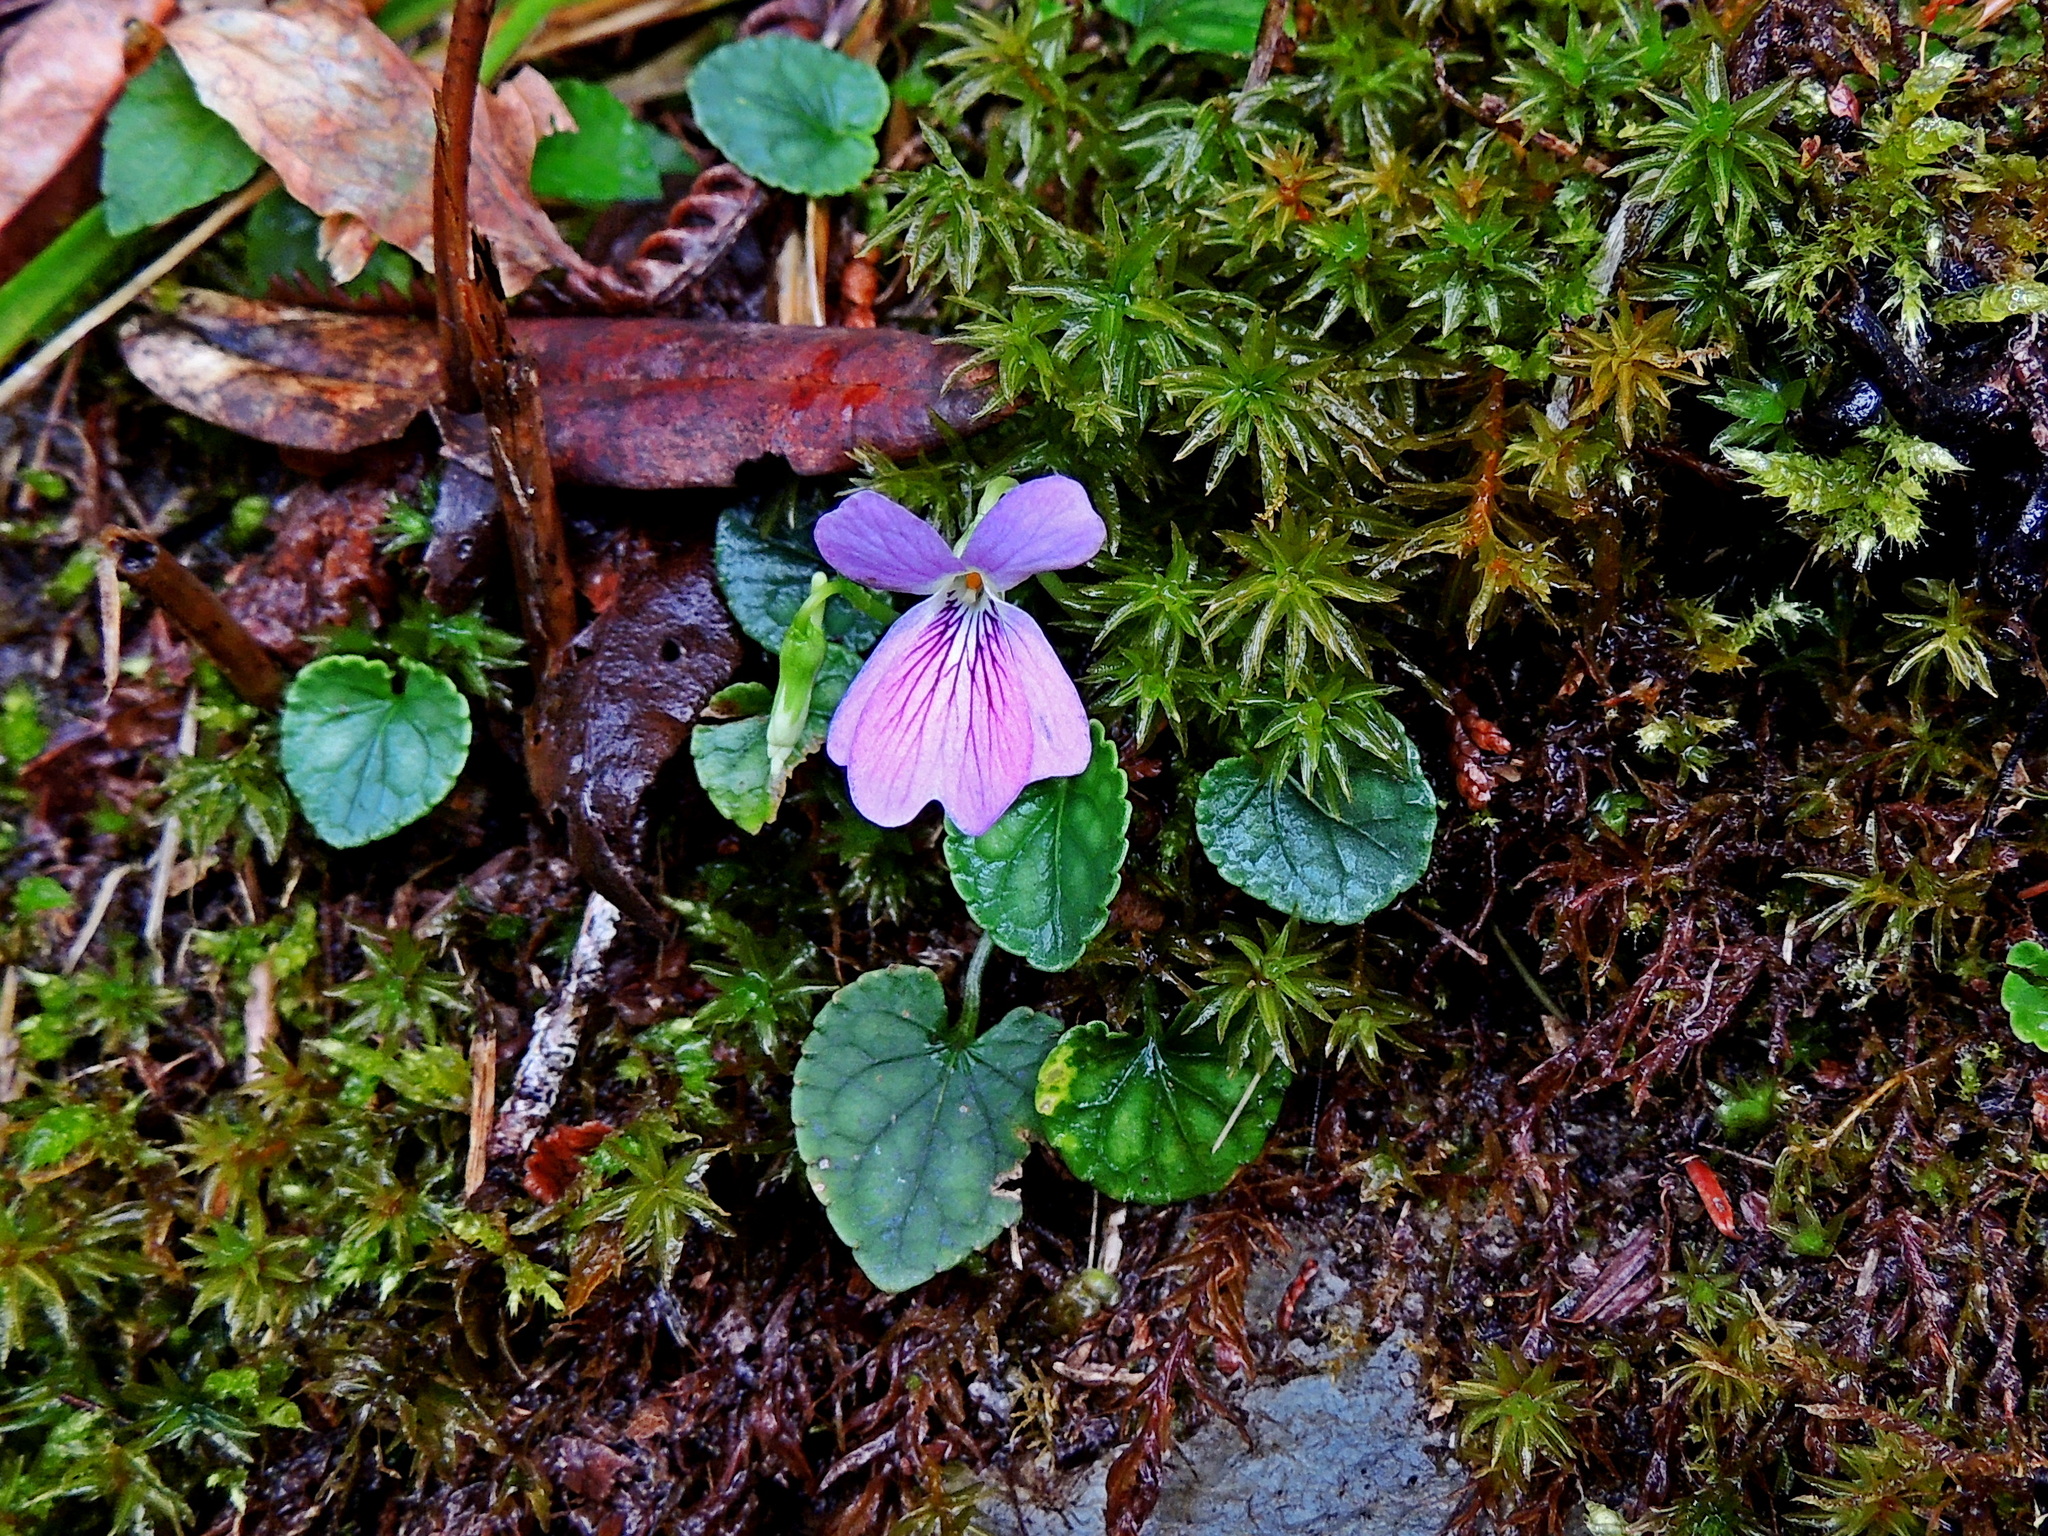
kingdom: Plantae
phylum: Tracheophyta
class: Magnoliopsida
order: Malpighiales
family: Violaceae
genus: Viola
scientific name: Viola formosana
